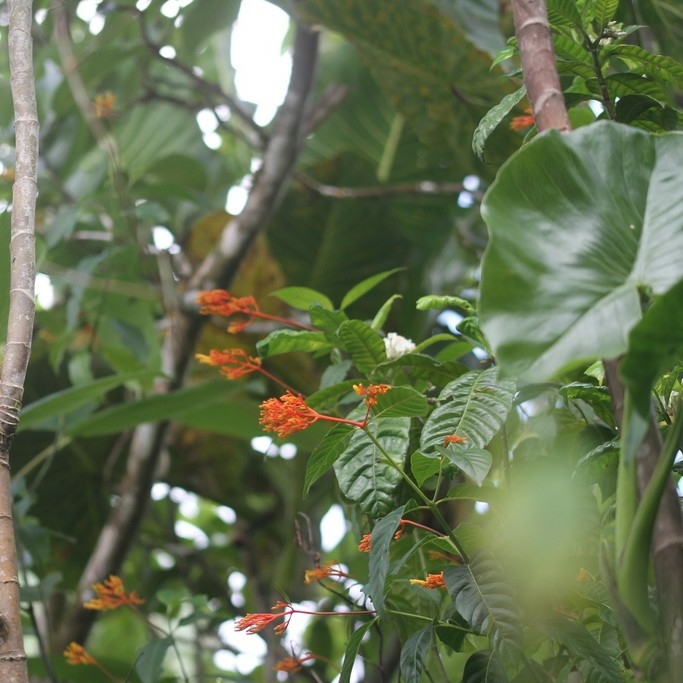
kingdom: Plantae
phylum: Tracheophyta
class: Magnoliopsida
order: Gentianales
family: Rubiaceae
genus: Palicourea
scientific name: Palicourea croceoides
